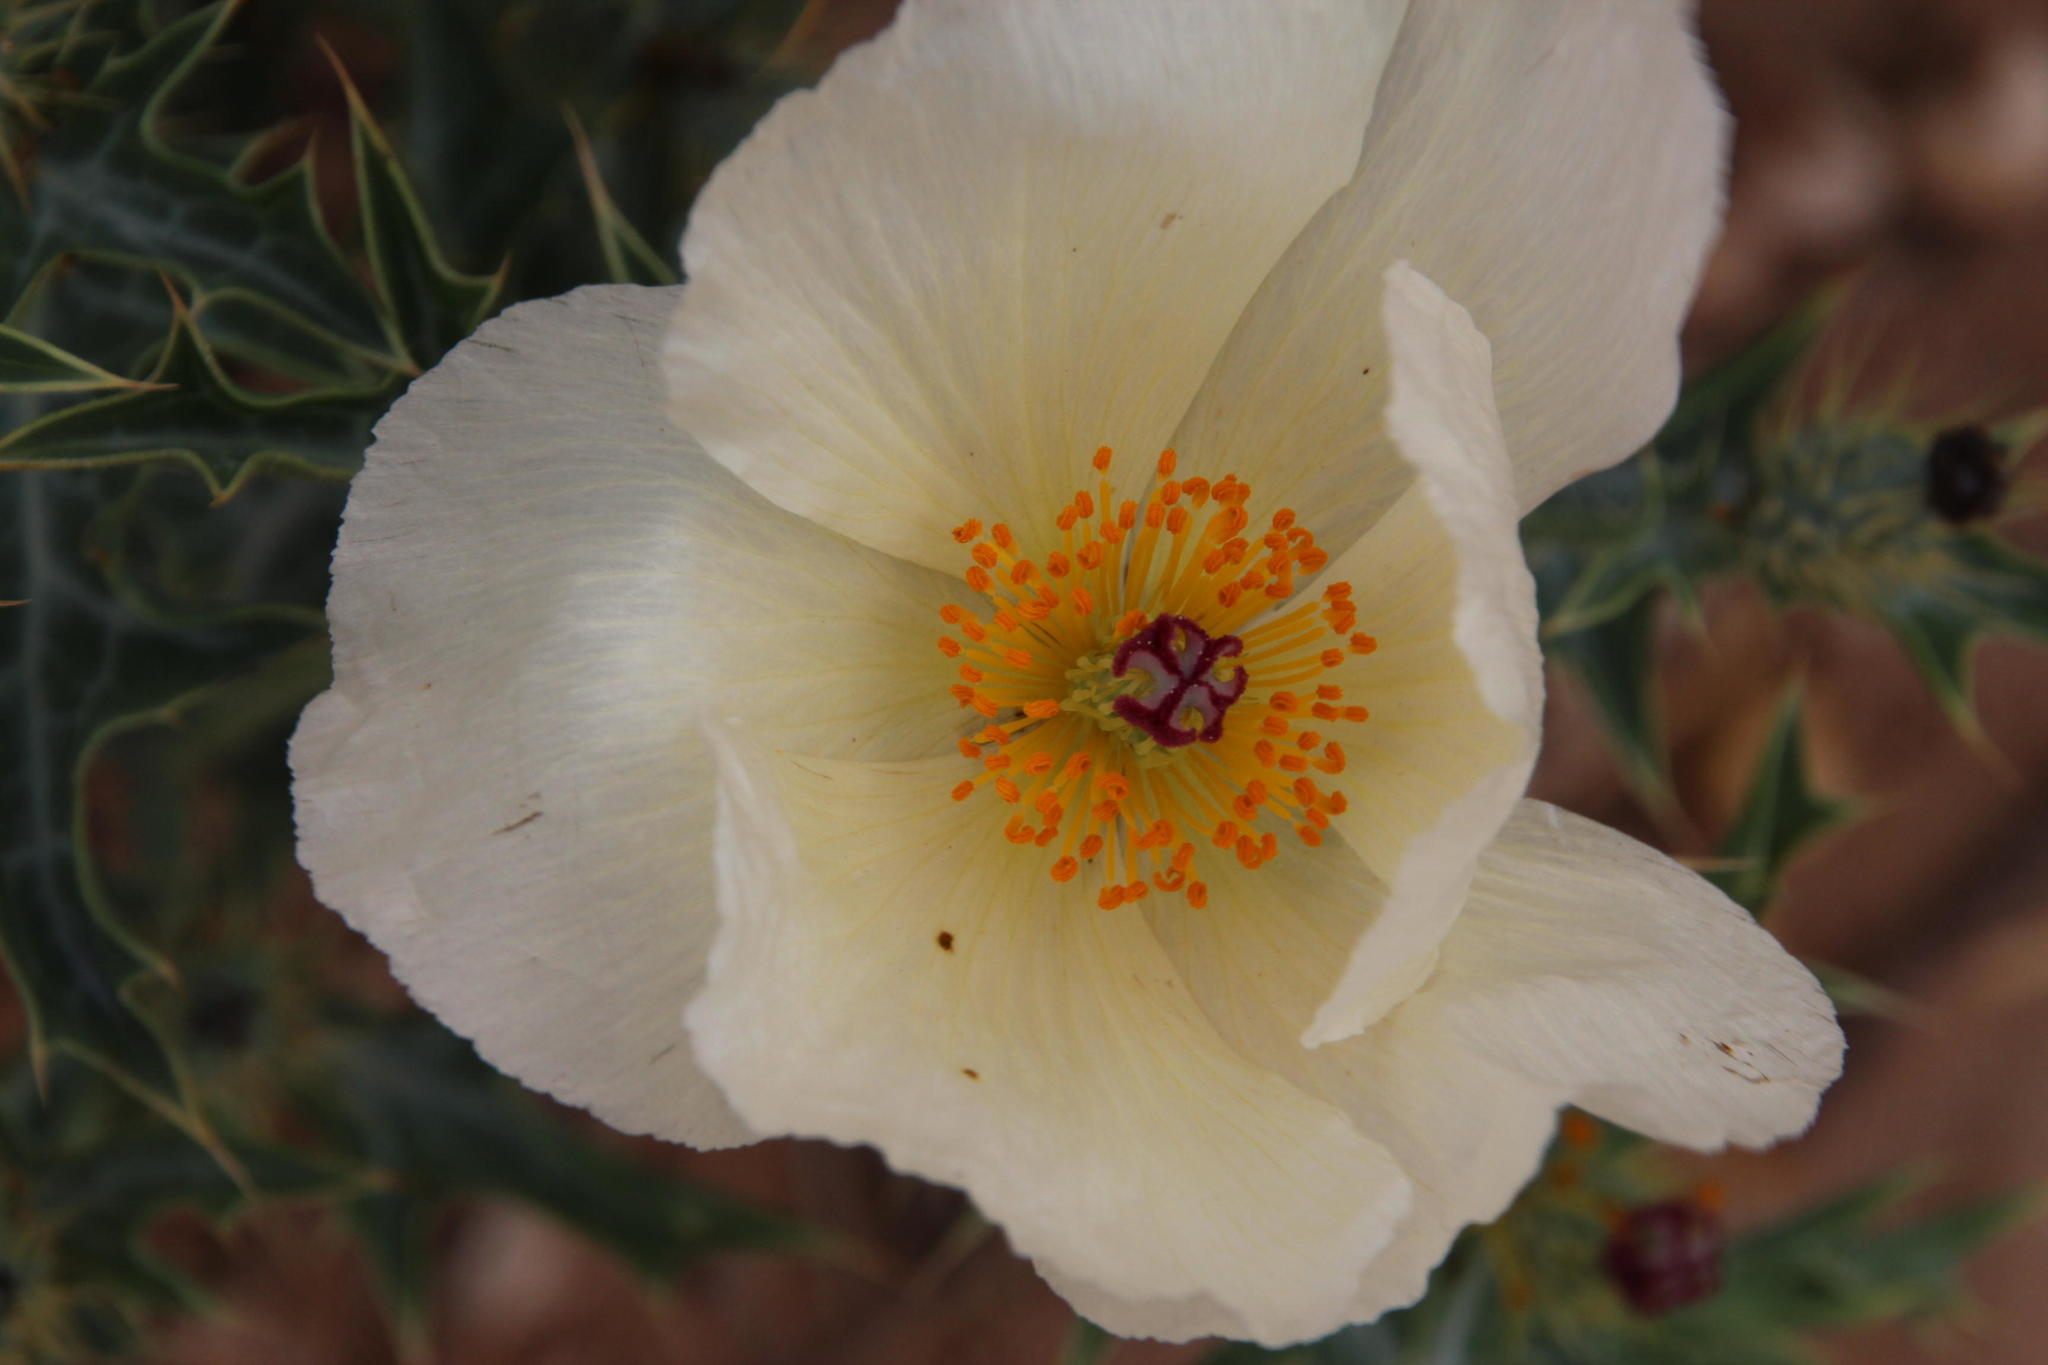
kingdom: Plantae
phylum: Tracheophyta
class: Magnoliopsida
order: Ranunculales
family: Papaveraceae
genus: Argemone
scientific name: Argemone ochroleuca
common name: White-flower mexican-poppy
